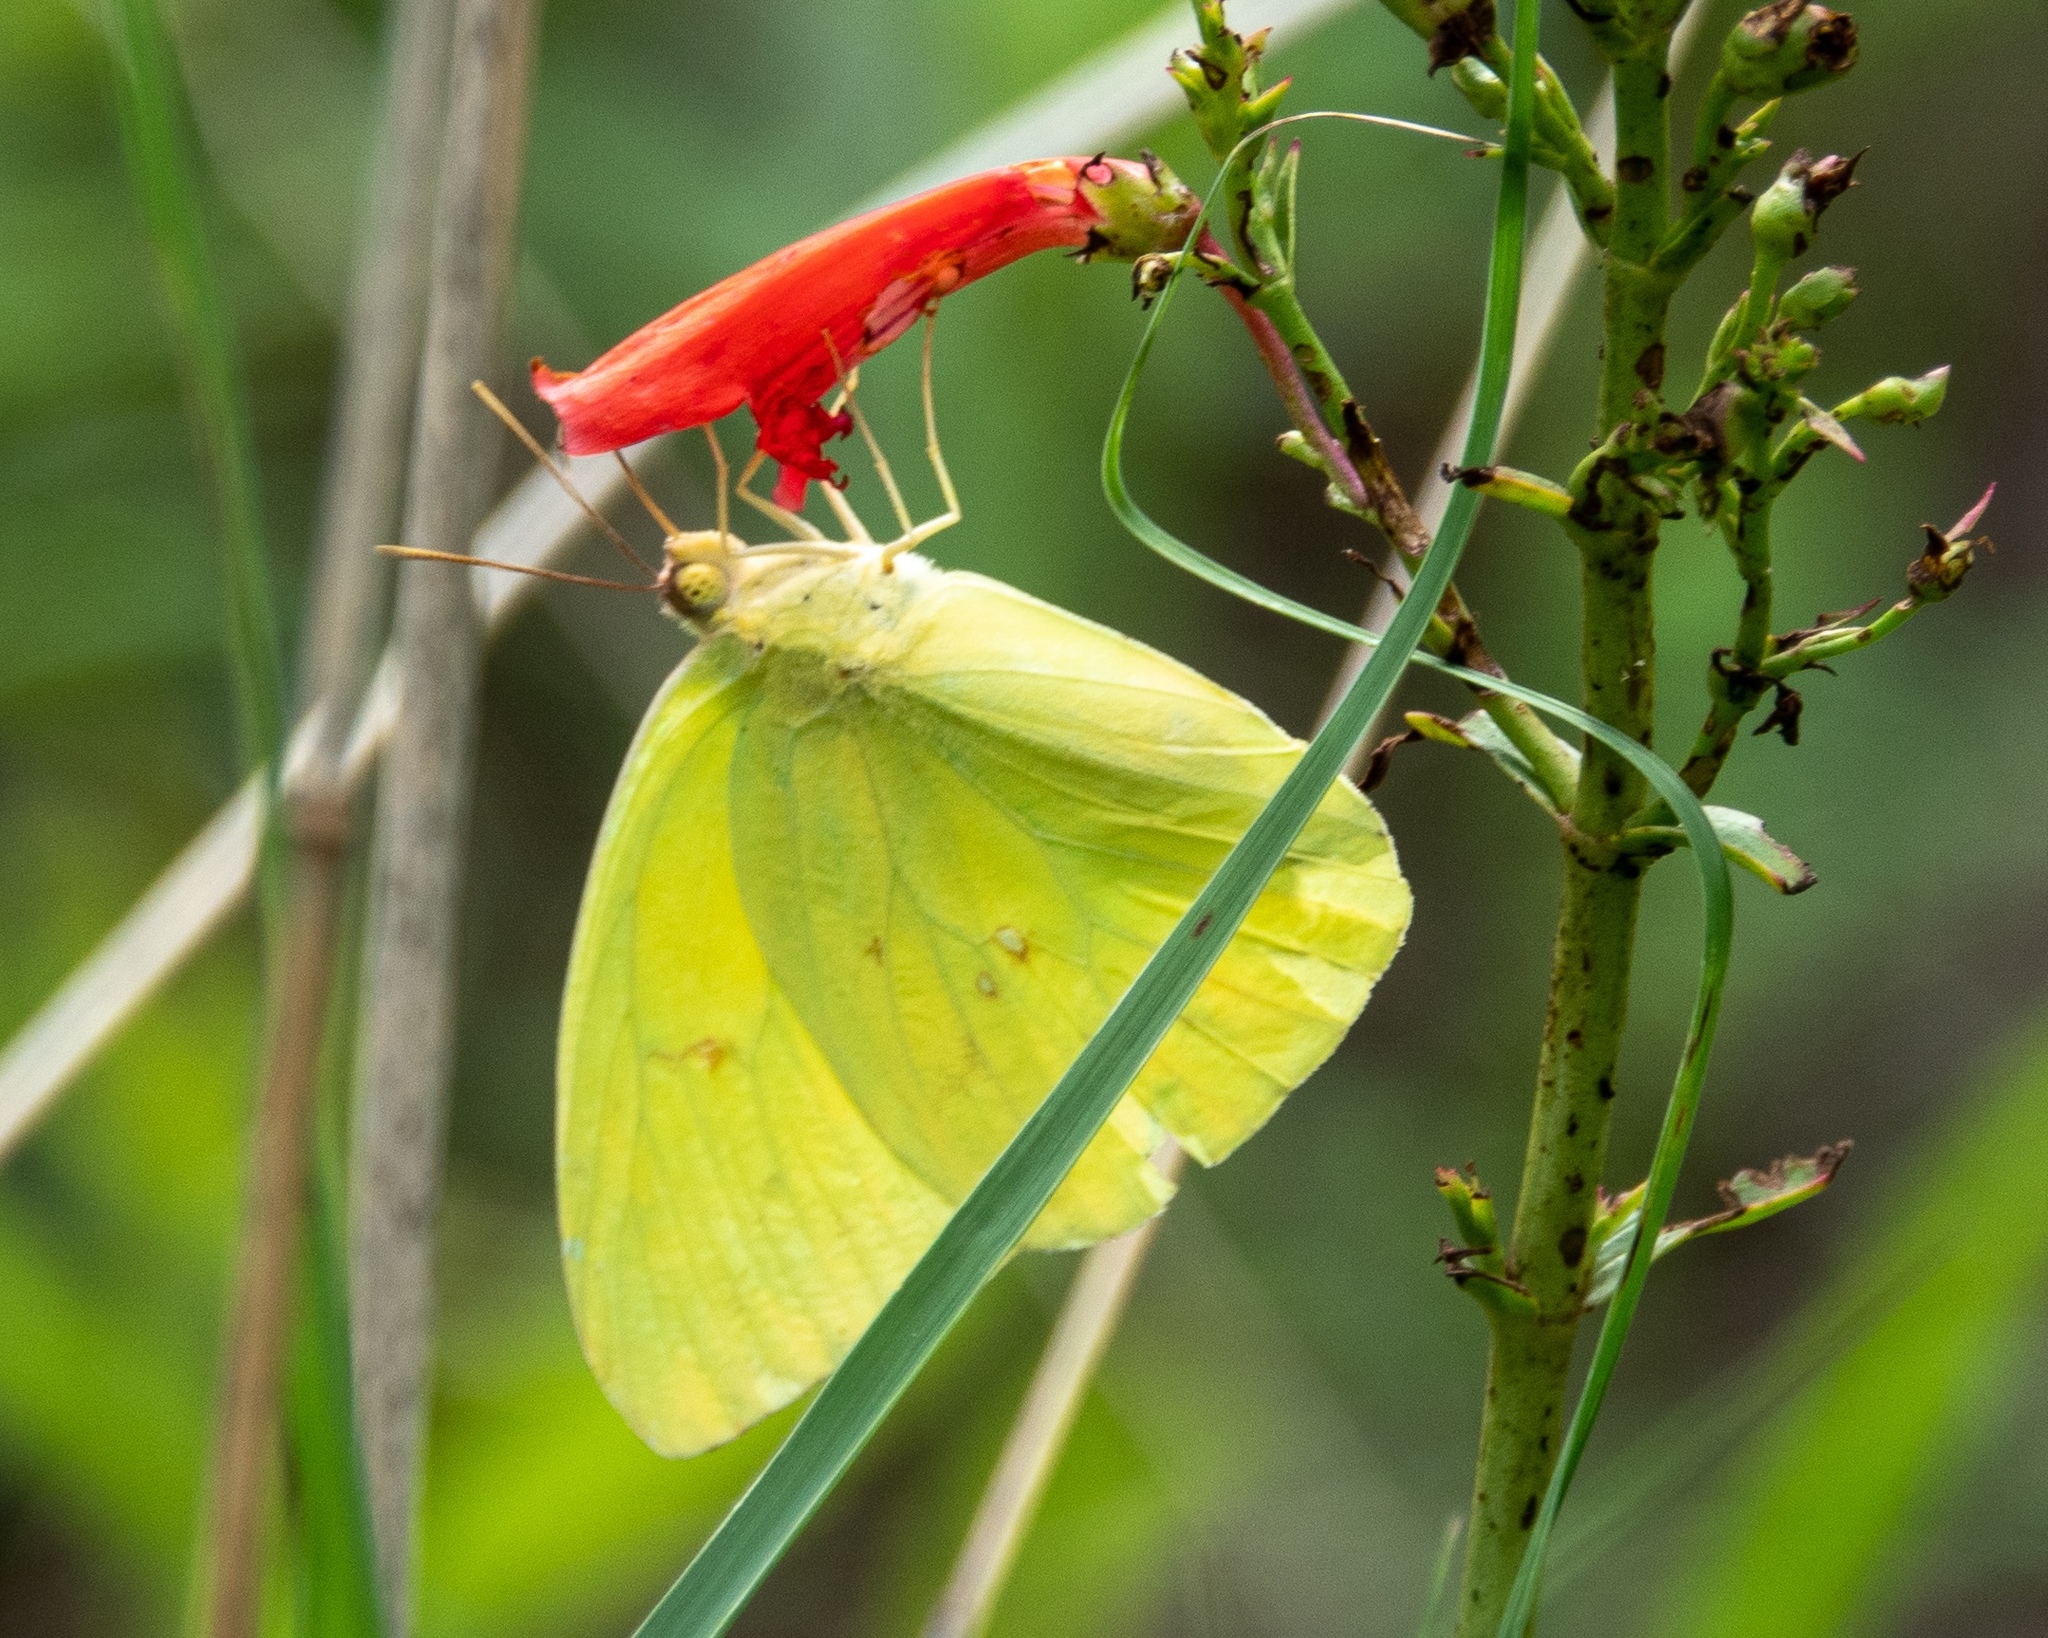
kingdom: Animalia
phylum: Arthropoda
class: Insecta
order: Lepidoptera
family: Pieridae
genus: Phoebis
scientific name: Phoebis sennae
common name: Cloudless sulphur
